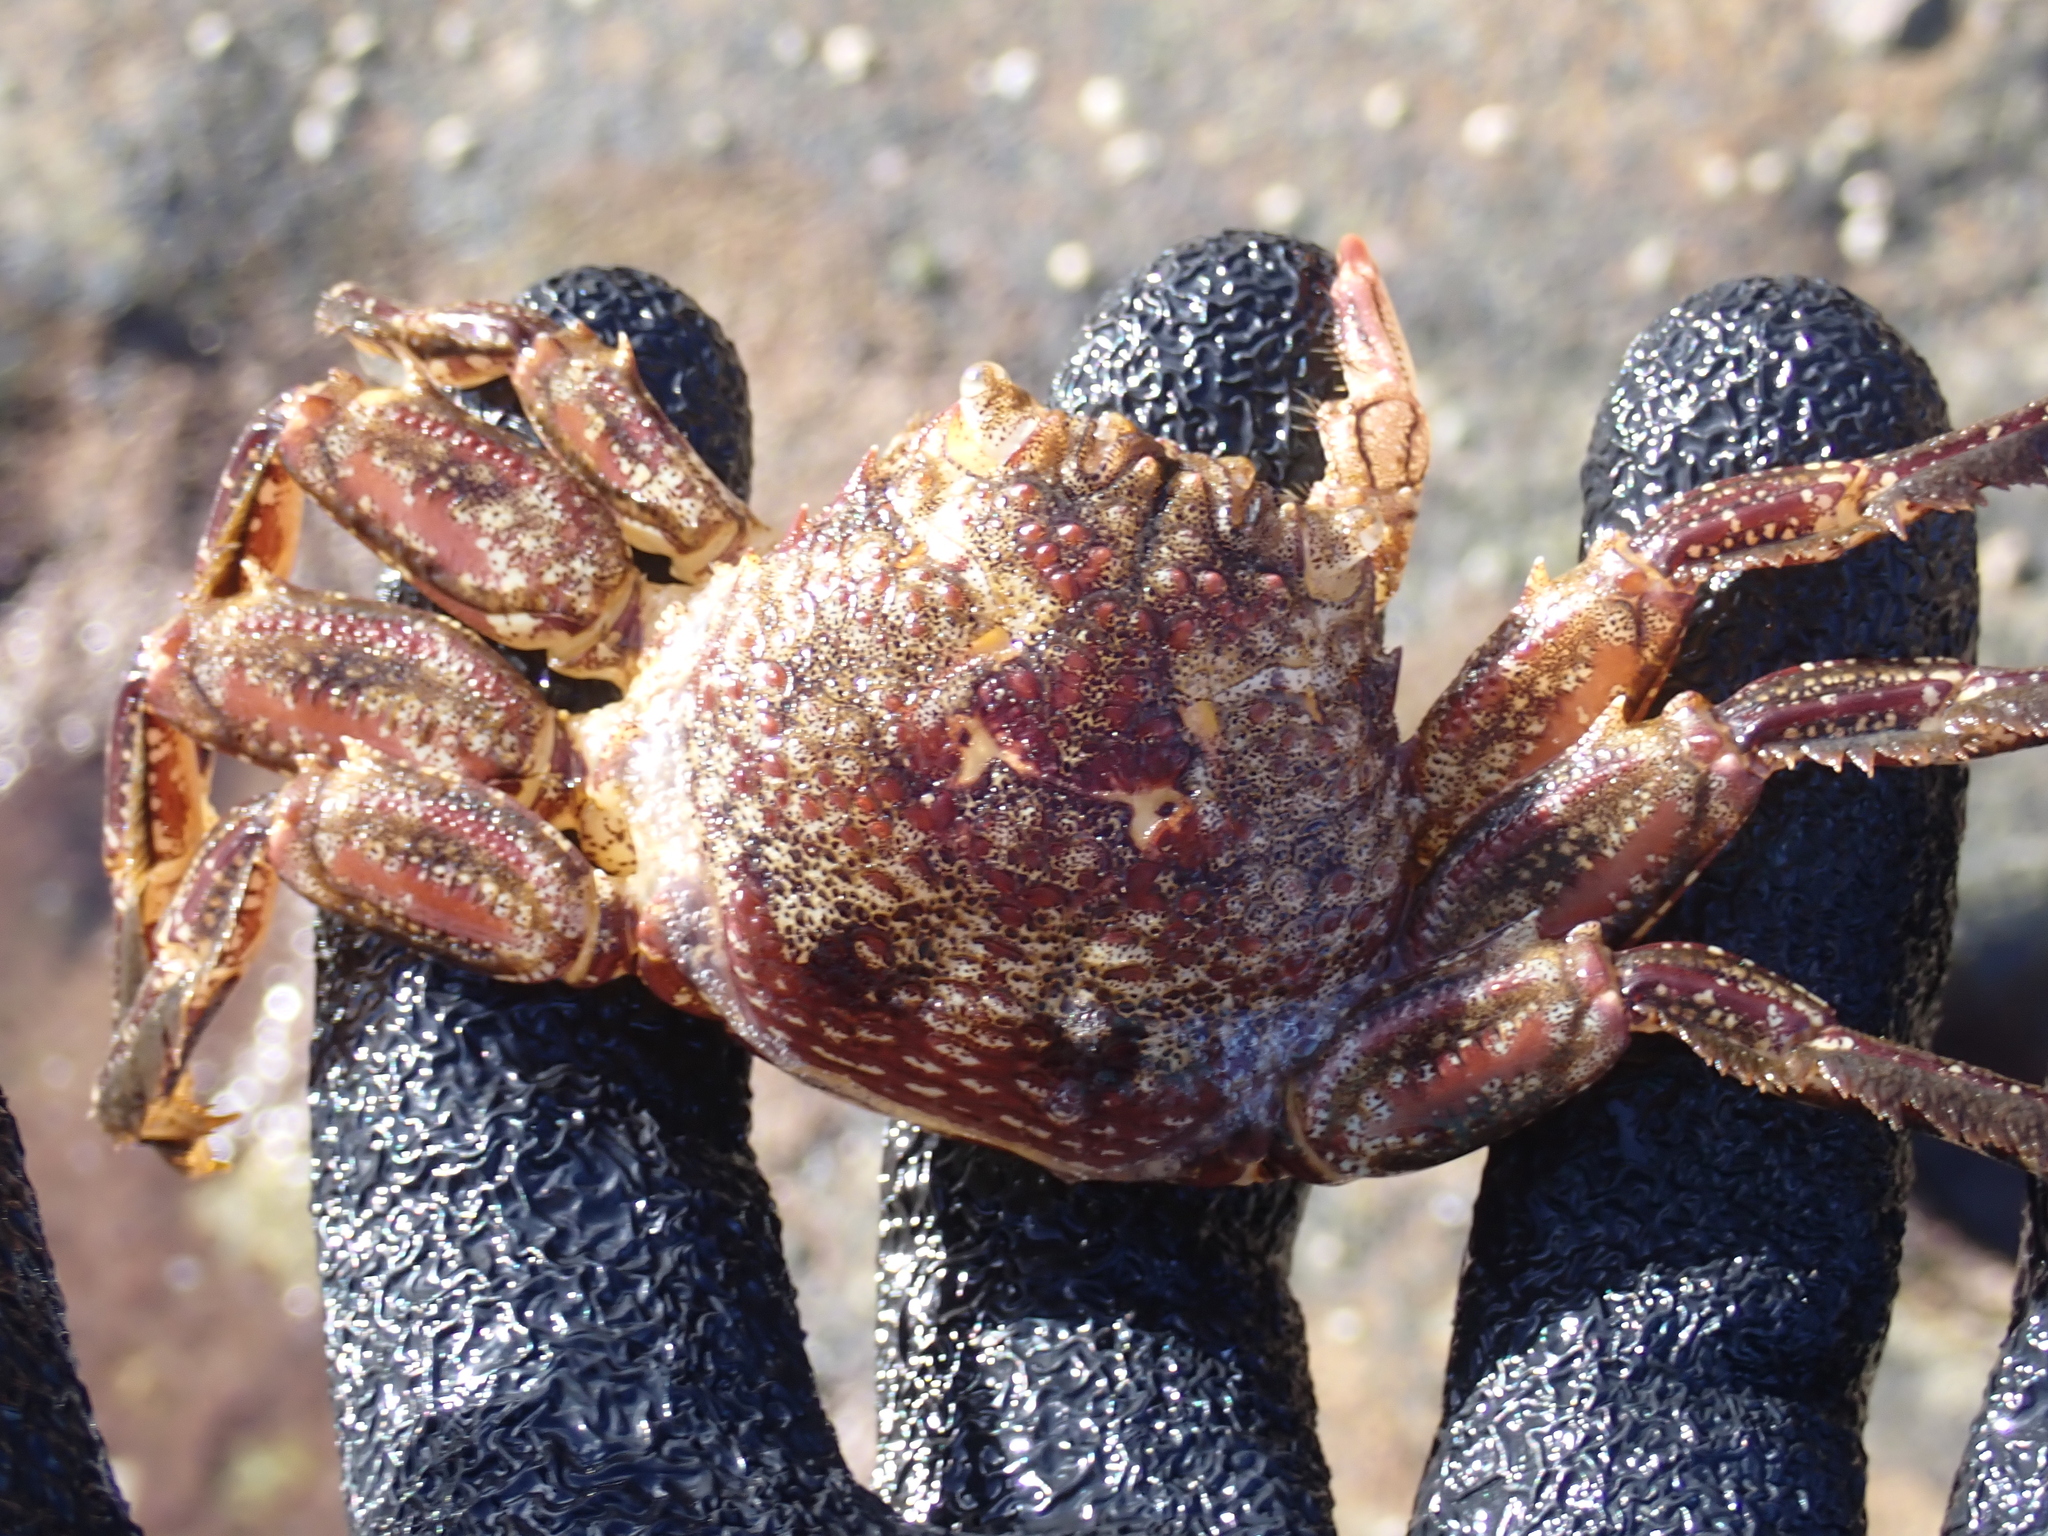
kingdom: Animalia
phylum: Arthropoda
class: Malacostraca
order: Decapoda
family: Plagusiidae
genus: Plagusia
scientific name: Plagusia squamosa
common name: Scaly rock crab
